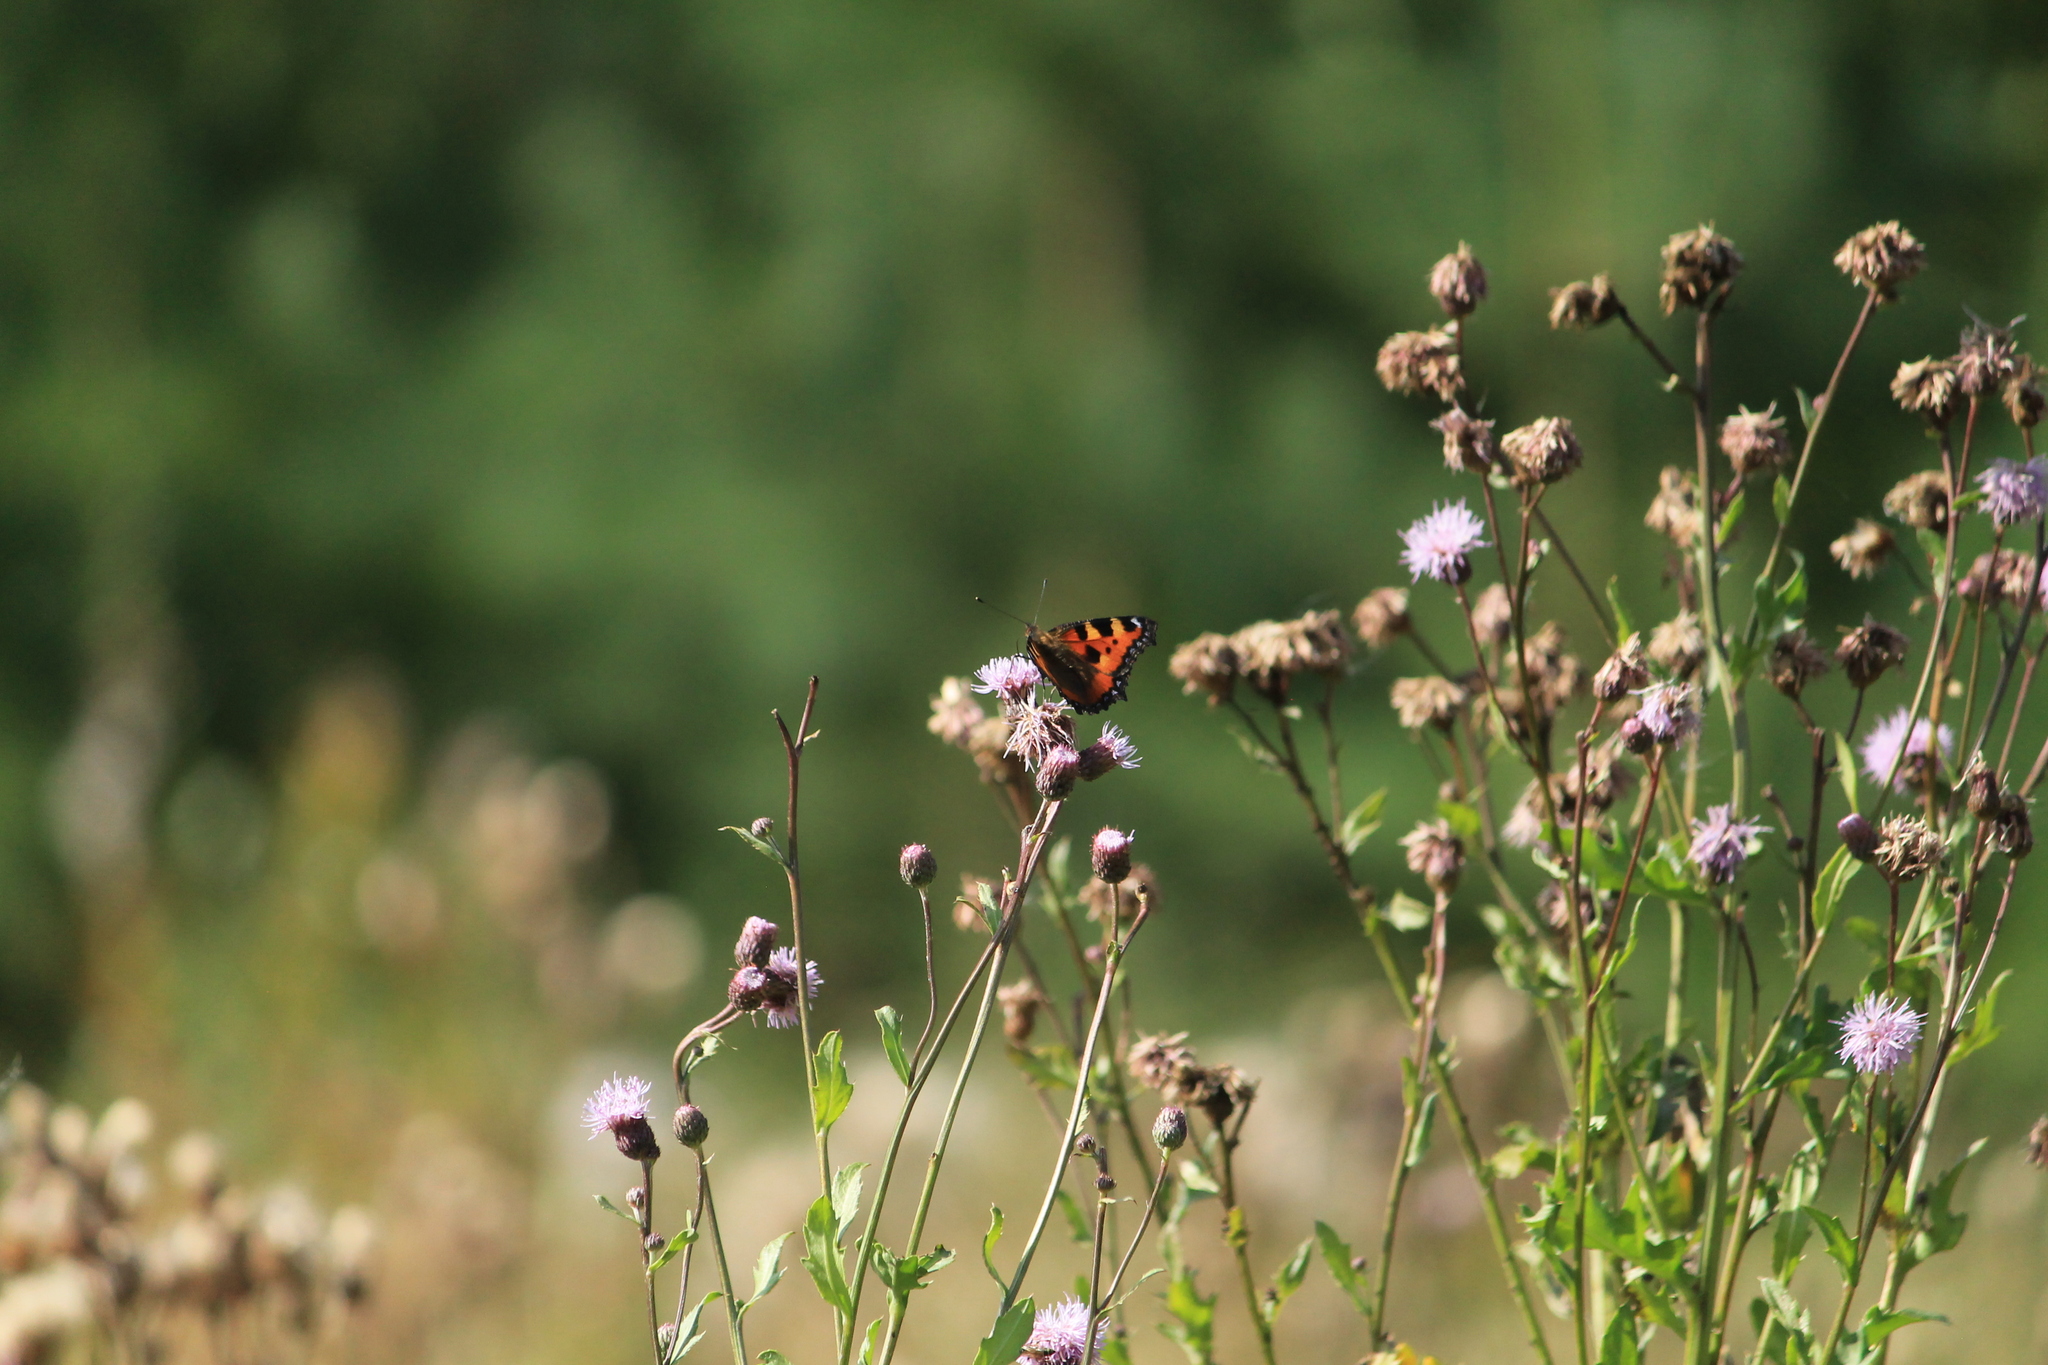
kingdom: Animalia
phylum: Arthropoda
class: Insecta
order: Lepidoptera
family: Nymphalidae
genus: Aglais
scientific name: Aglais urticae
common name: Small tortoiseshell
